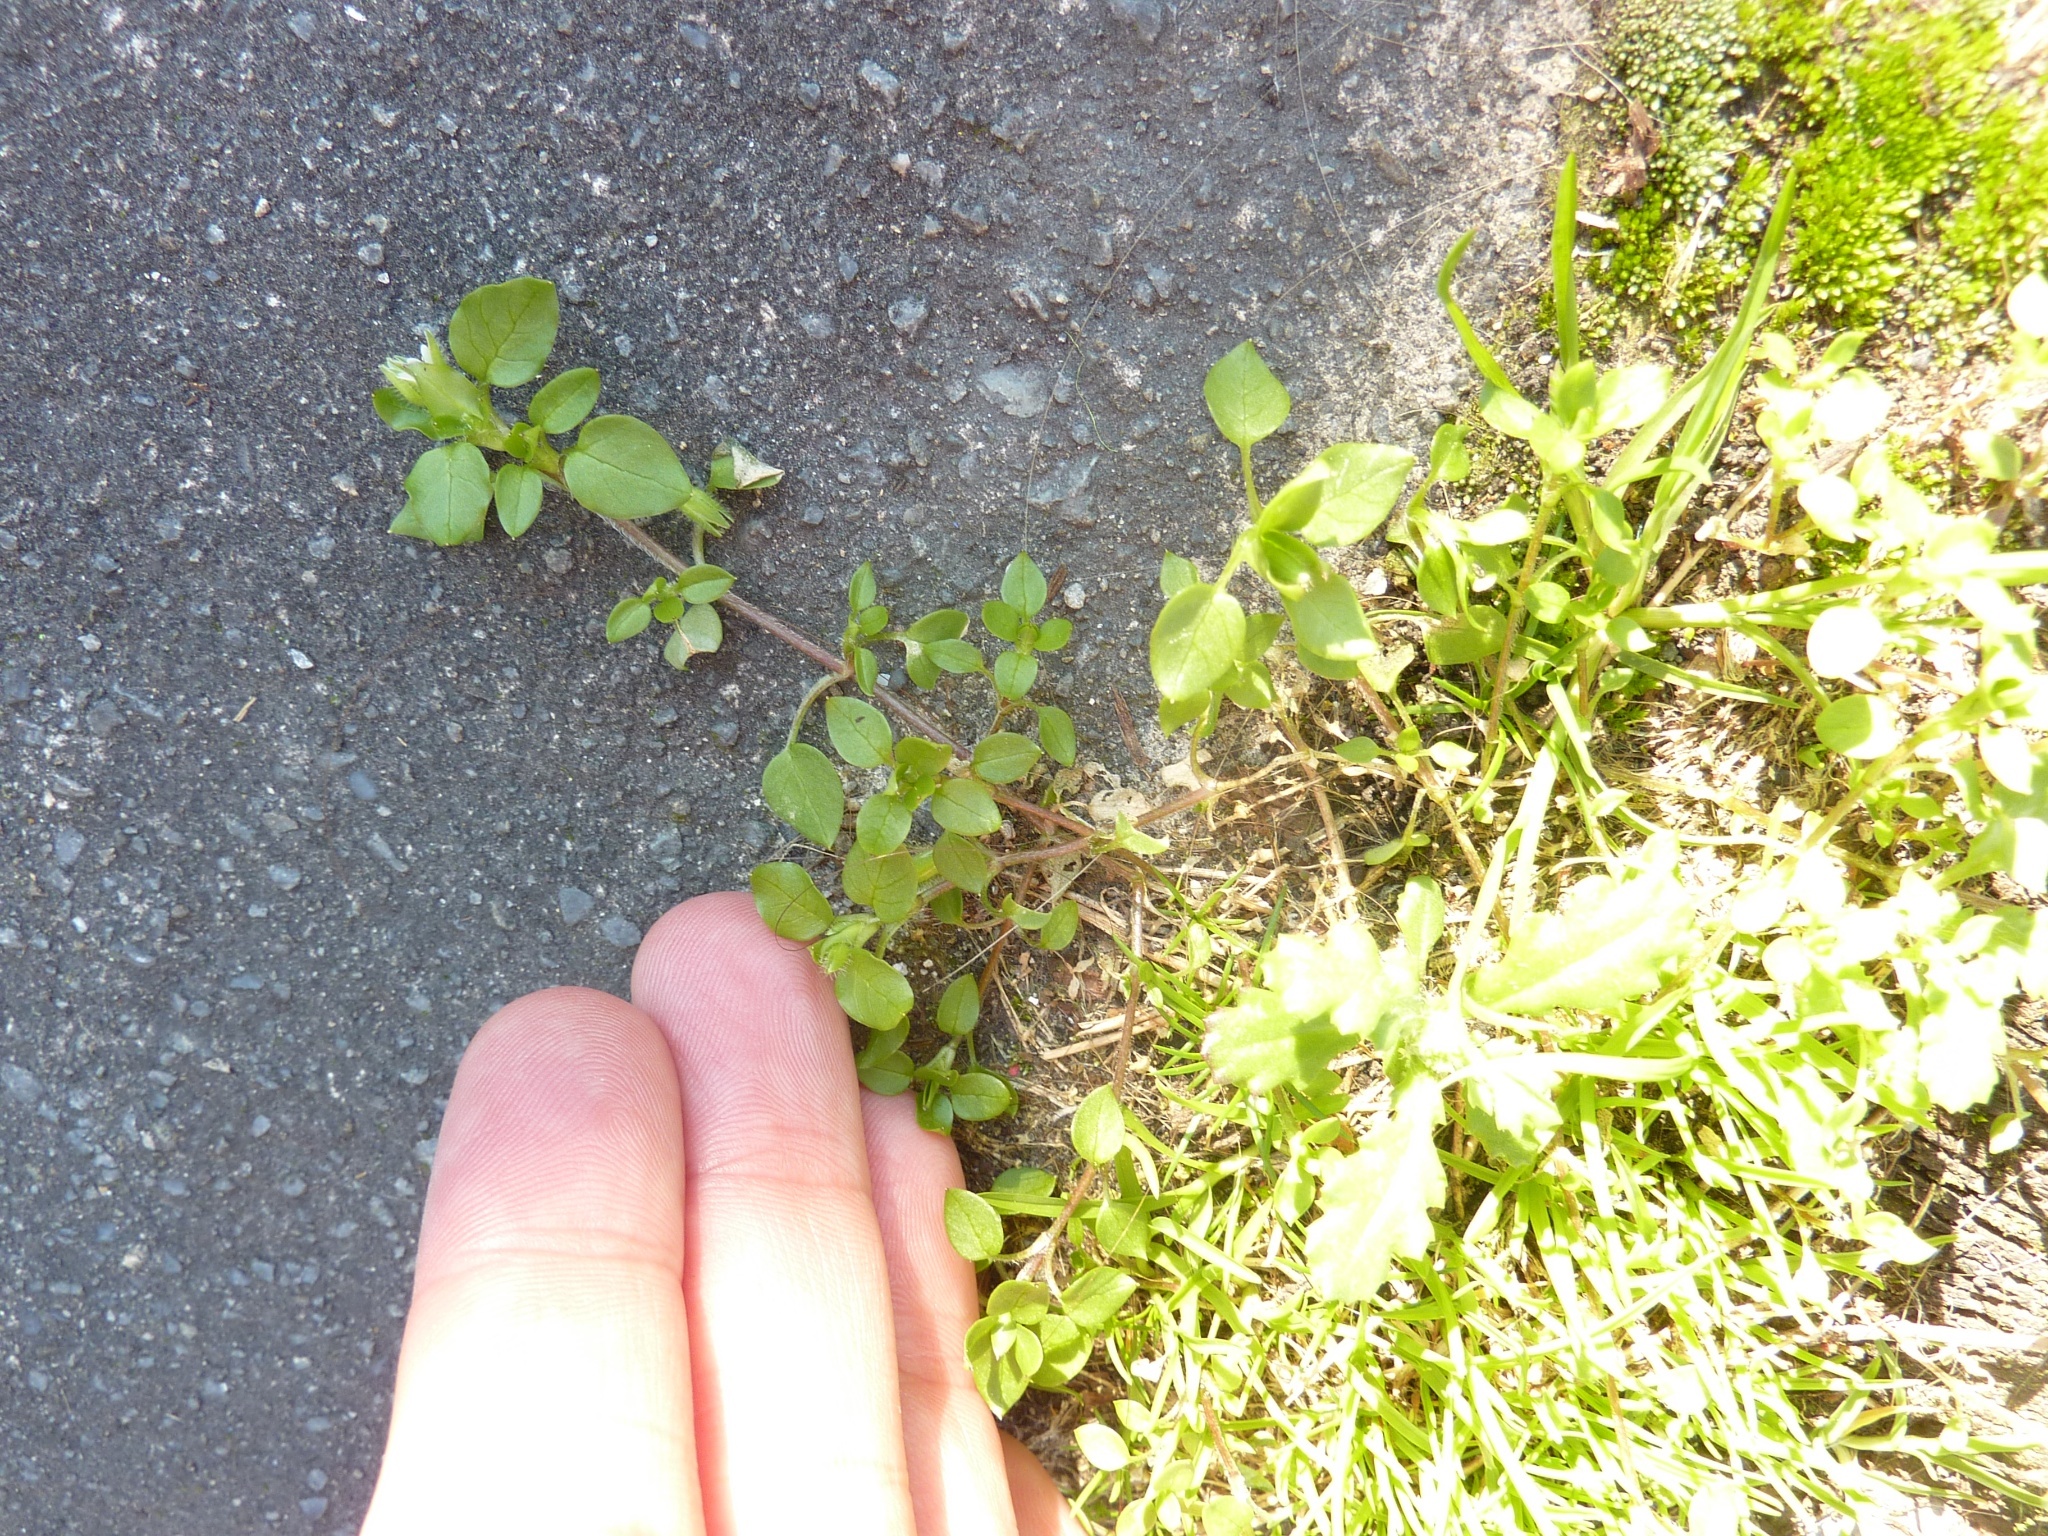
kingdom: Plantae
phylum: Tracheophyta
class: Magnoliopsida
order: Caryophyllales
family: Caryophyllaceae
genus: Stellaria
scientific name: Stellaria media
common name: Common chickweed
